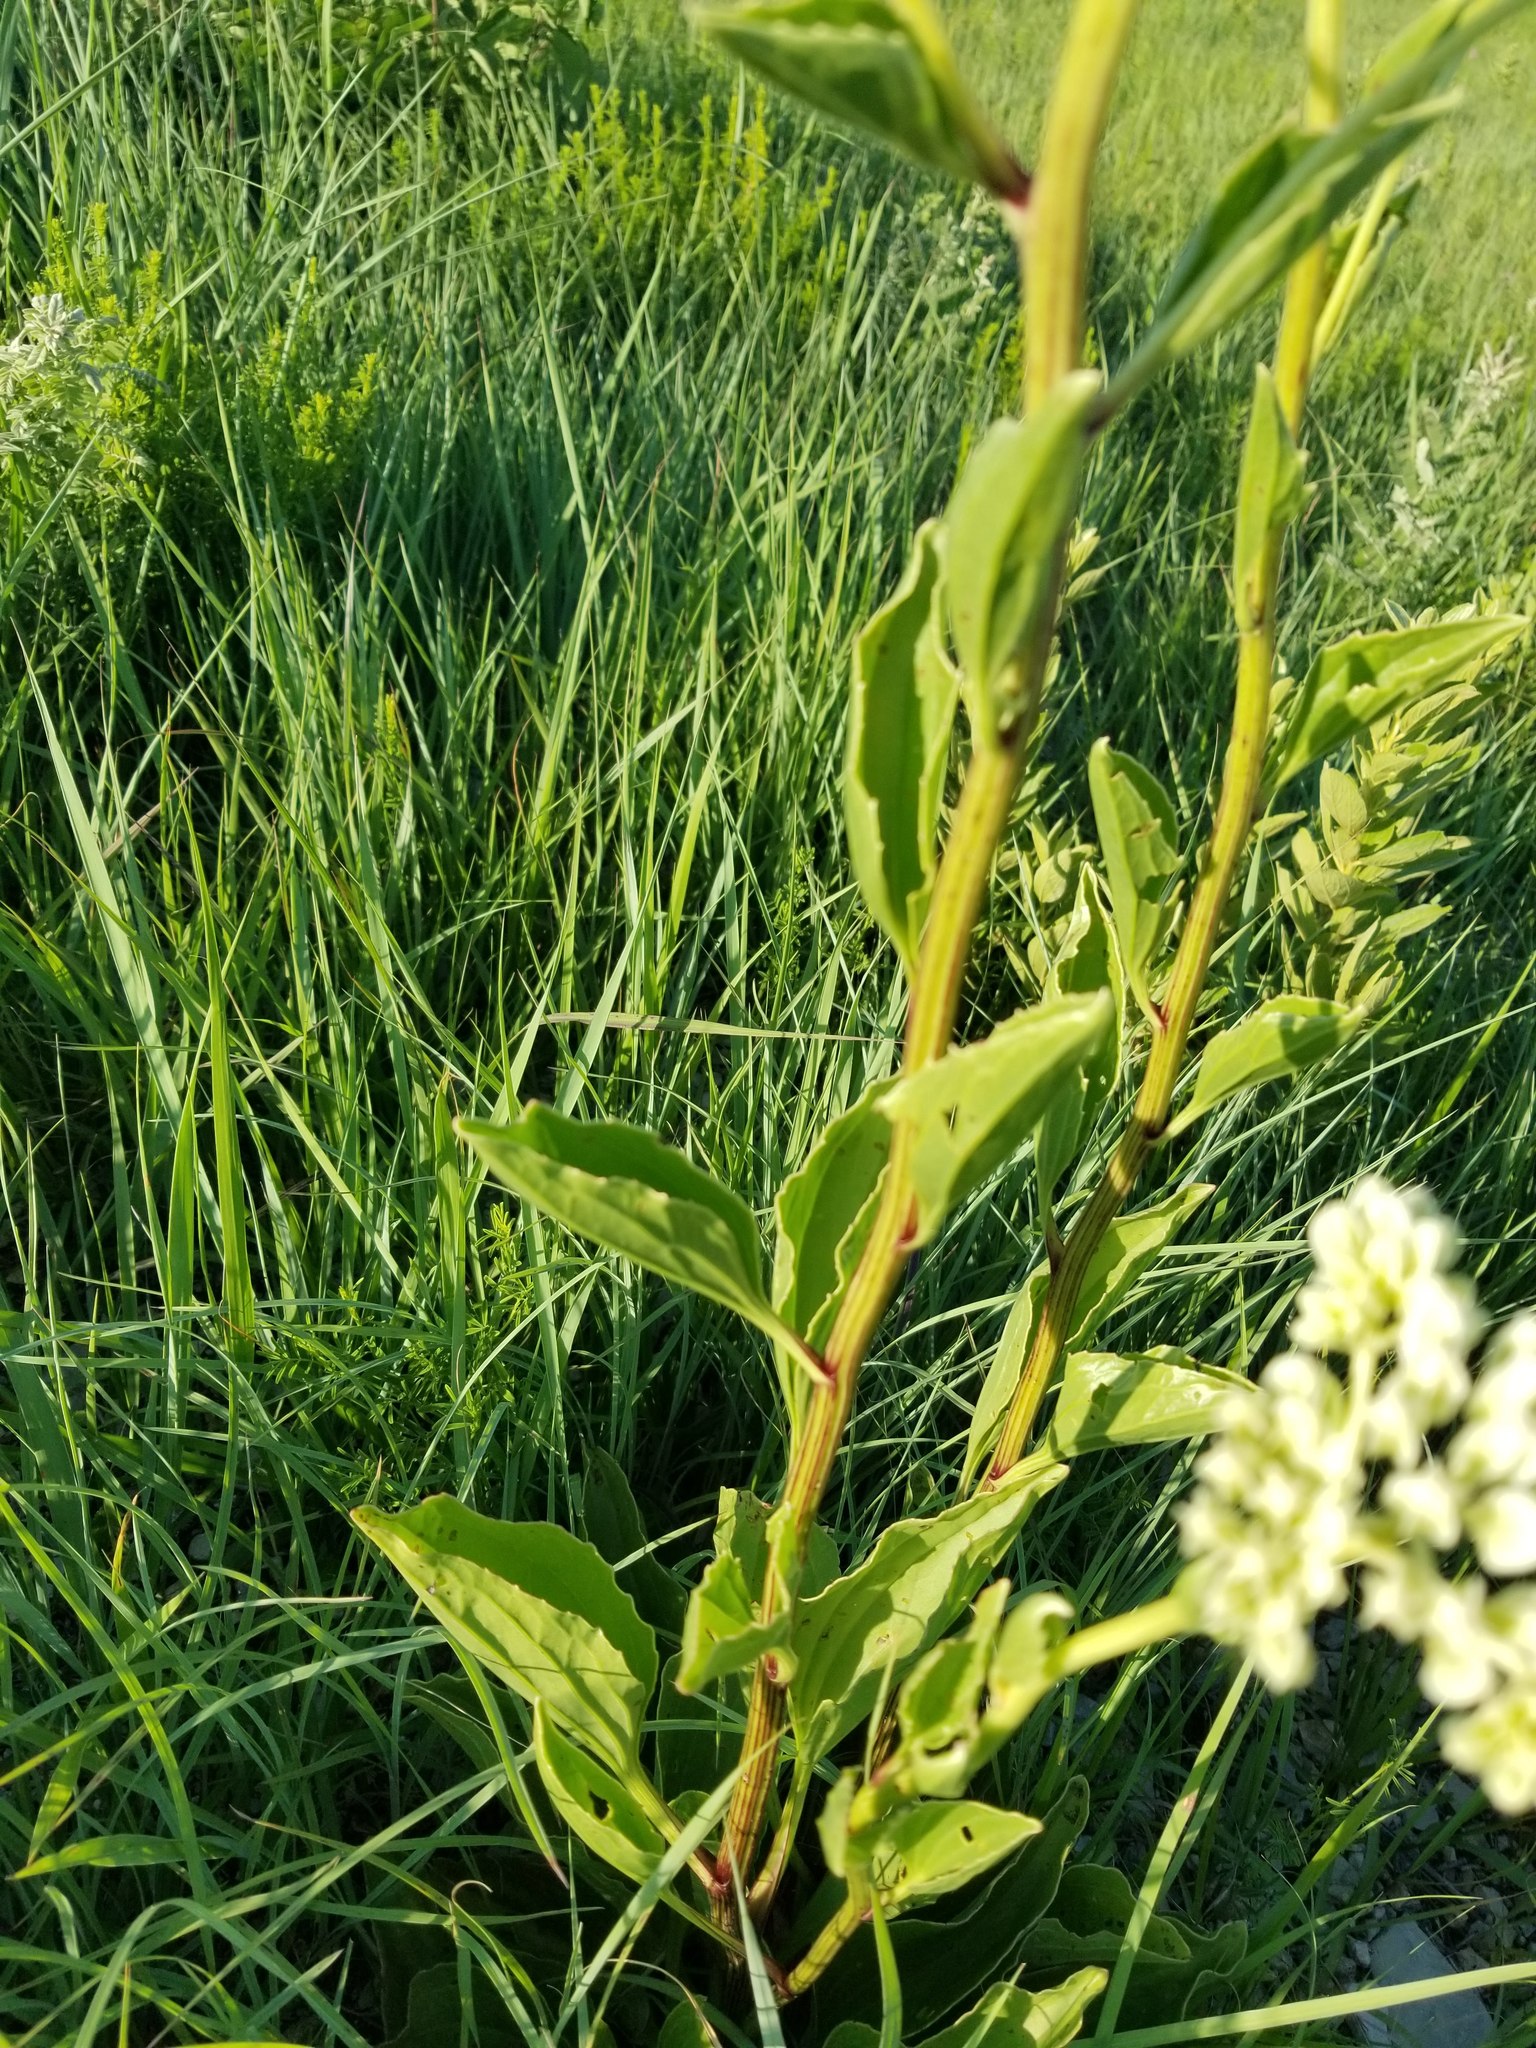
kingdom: Plantae
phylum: Tracheophyta
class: Magnoliopsida
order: Asterales
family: Asteraceae
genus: Arnoglossum
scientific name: Arnoglossum plantagineum
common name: Groove-stemmed indian-plantain
